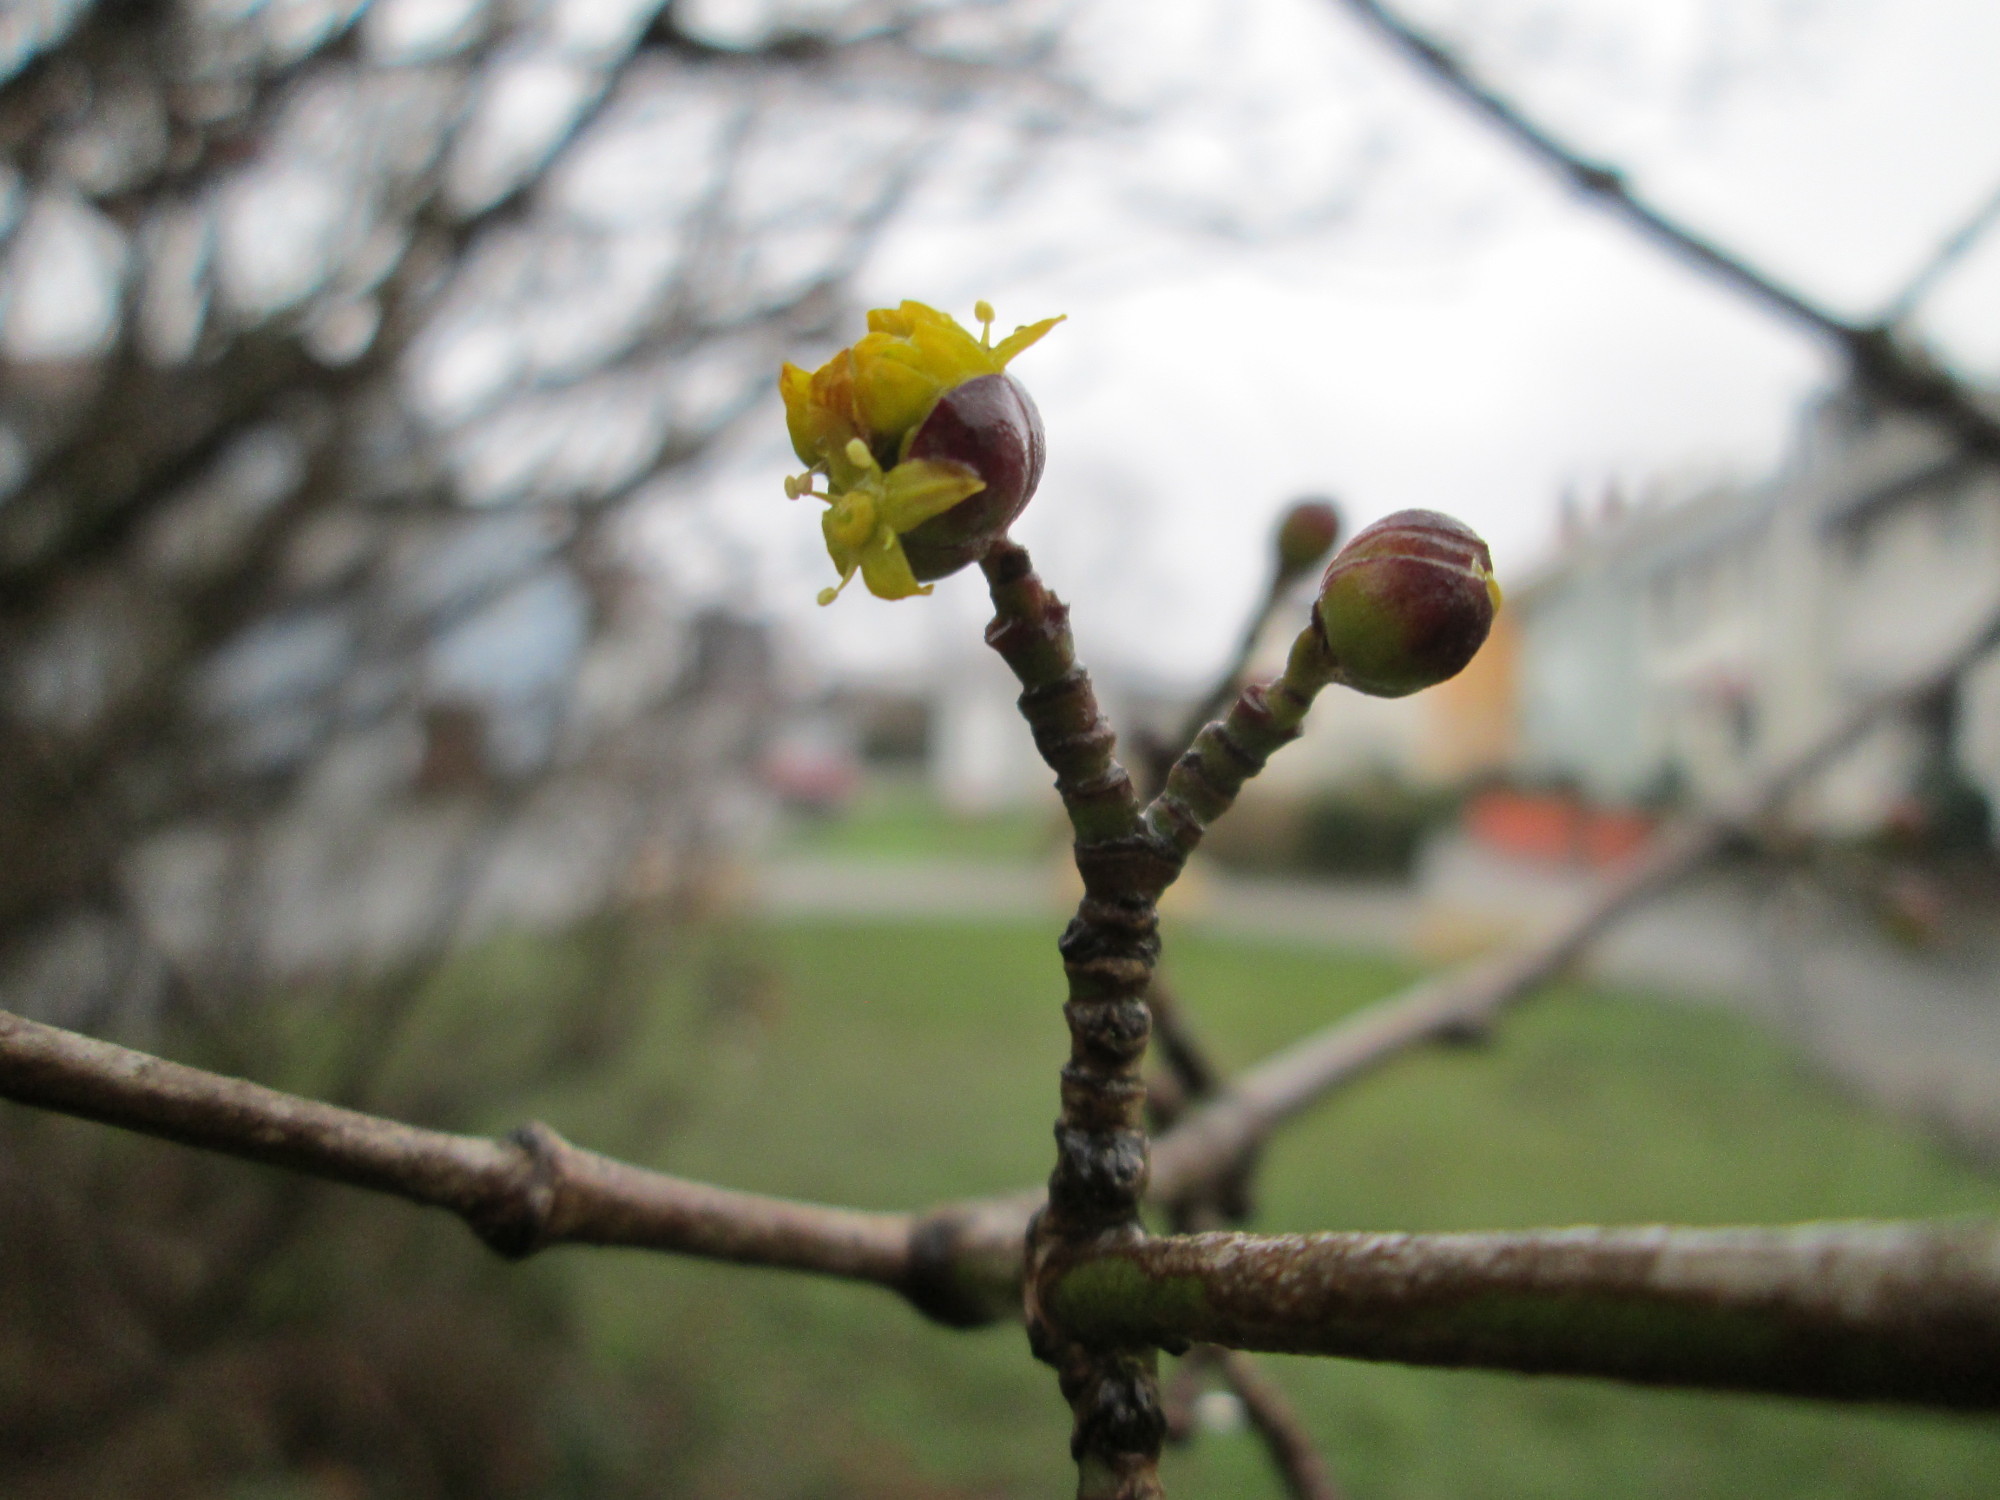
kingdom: Plantae
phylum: Tracheophyta
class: Magnoliopsida
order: Cornales
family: Cornaceae
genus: Cornus
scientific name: Cornus mas
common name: Cornelian-cherry
